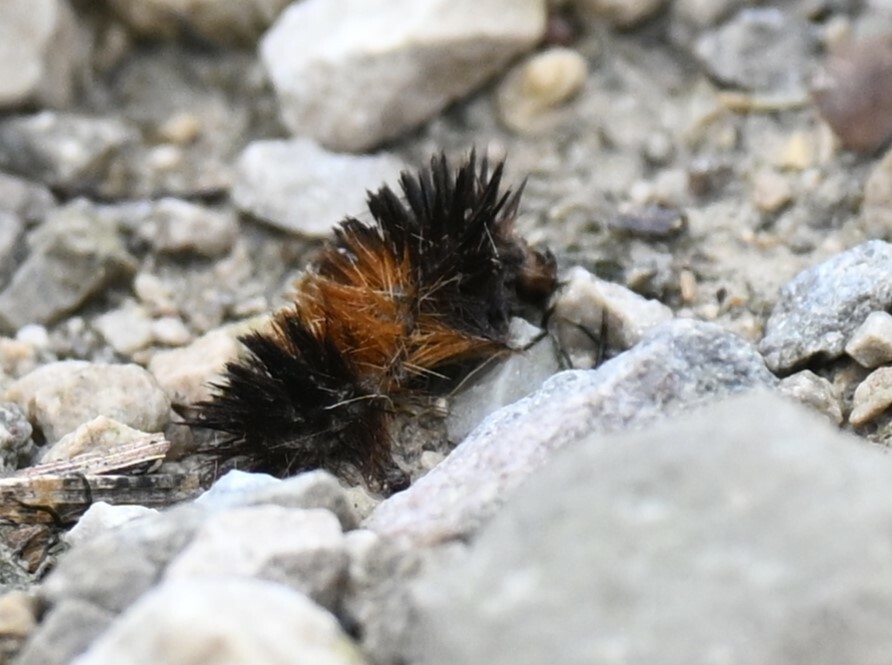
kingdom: Animalia
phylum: Arthropoda
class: Insecta
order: Lepidoptera
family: Erebidae
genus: Pyrrharctia
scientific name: Pyrrharctia isabella
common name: Isabella tiger moth
